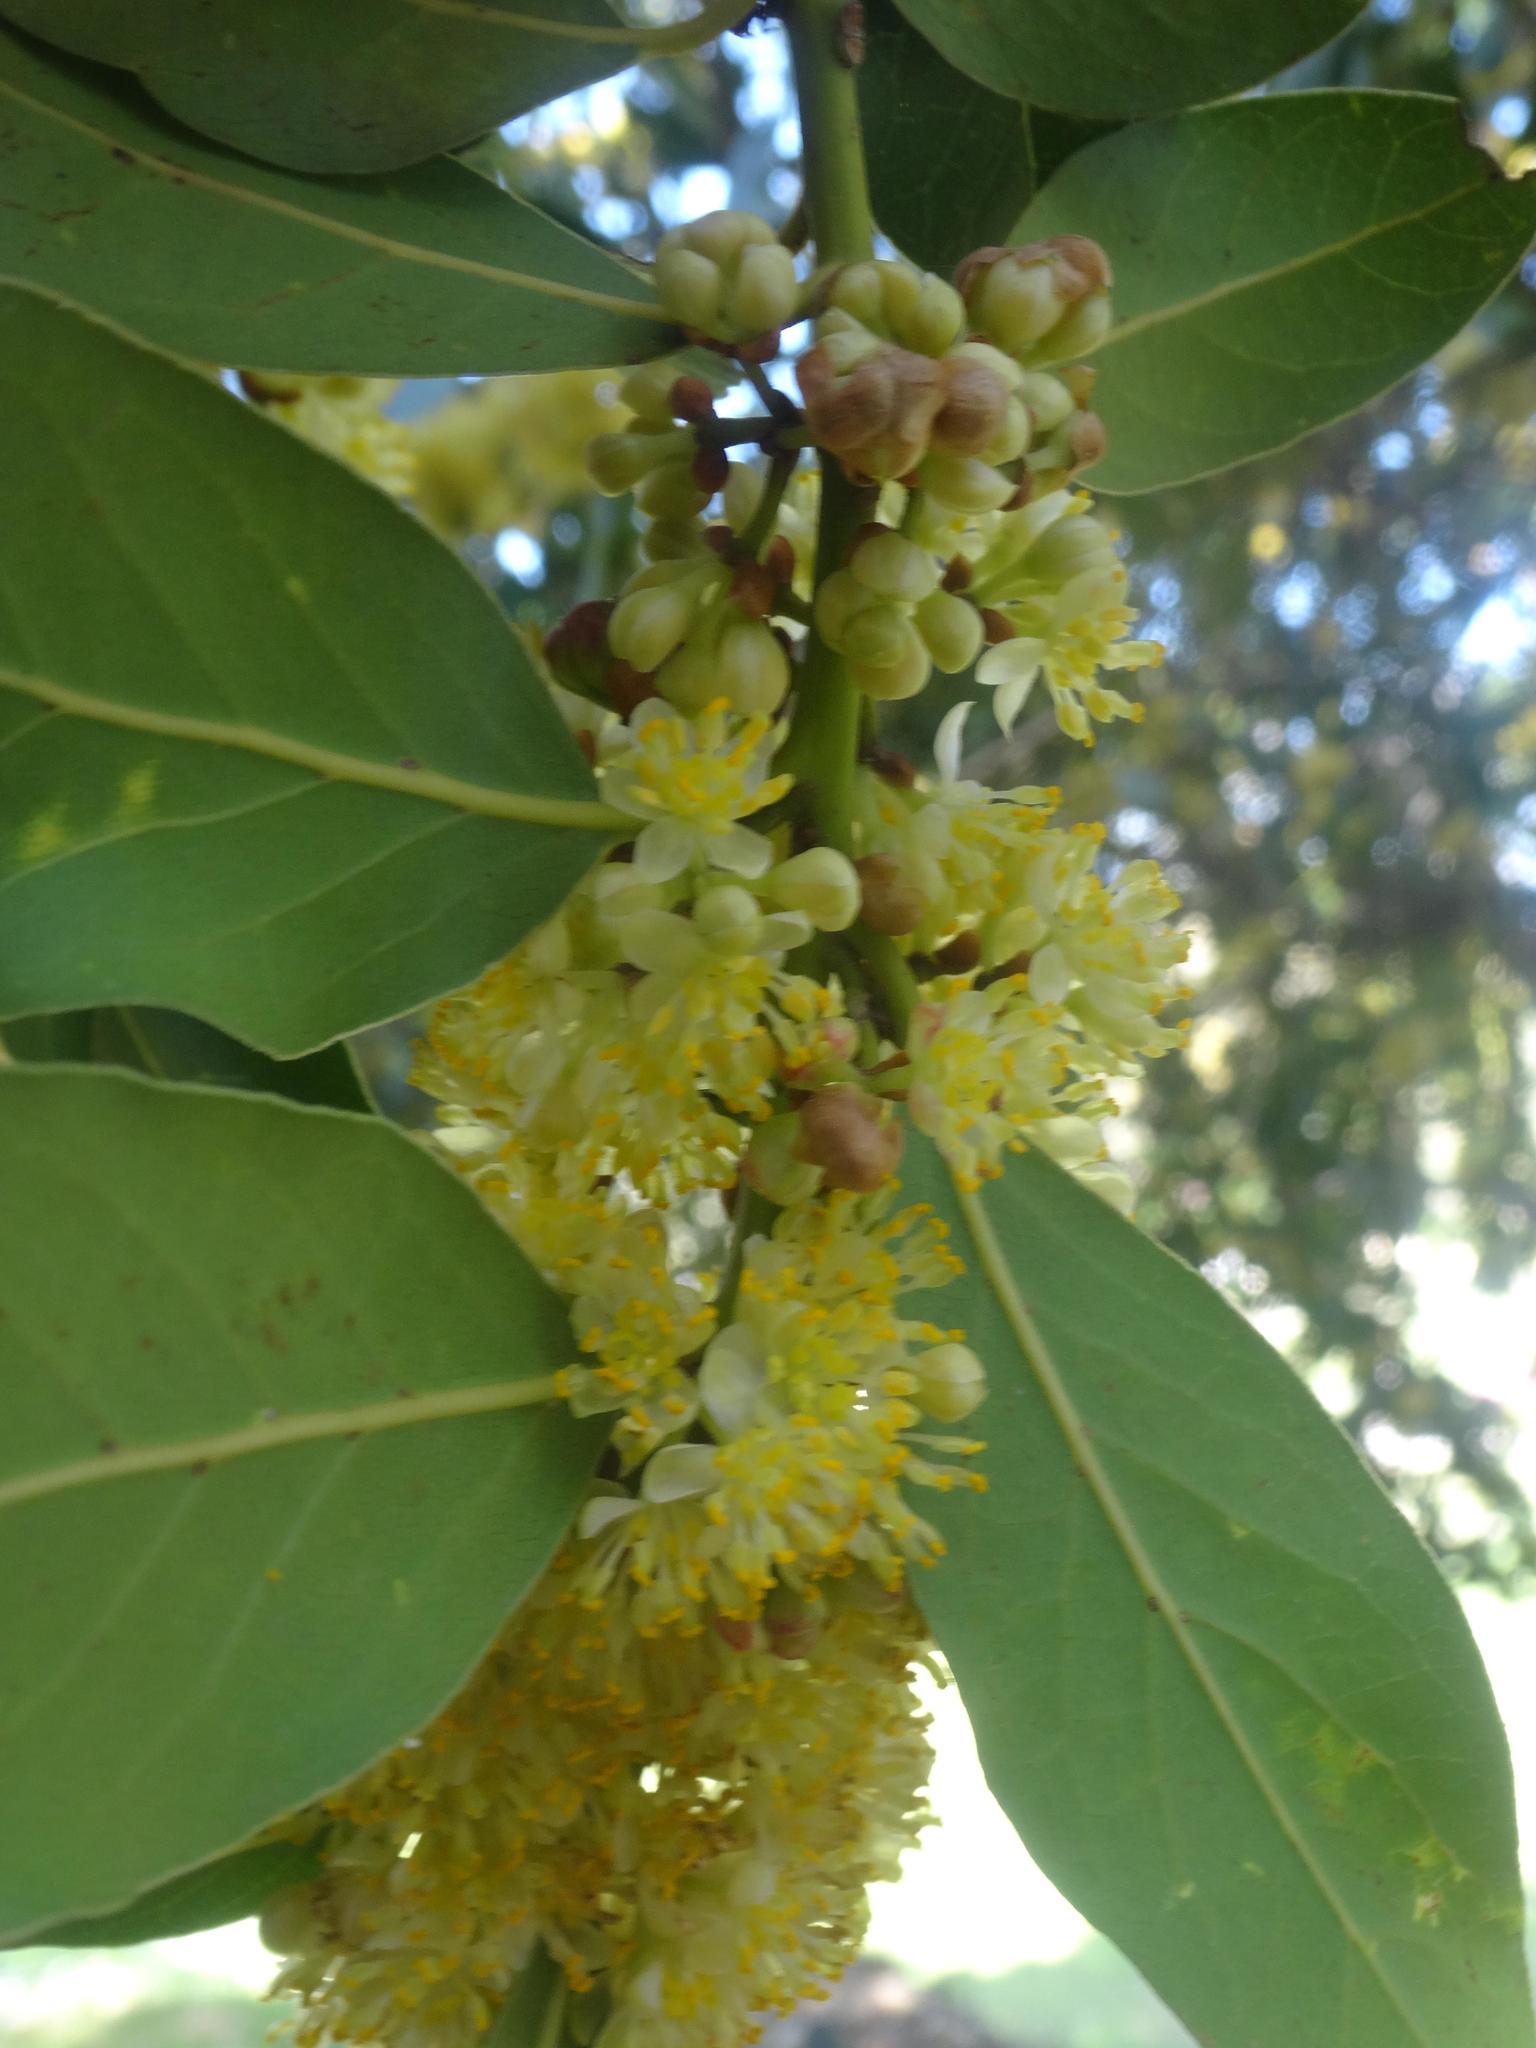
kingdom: Plantae
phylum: Tracheophyta
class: Magnoliopsida
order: Laurales
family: Lauraceae
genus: Laurus
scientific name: Laurus nobilis
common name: Bay
